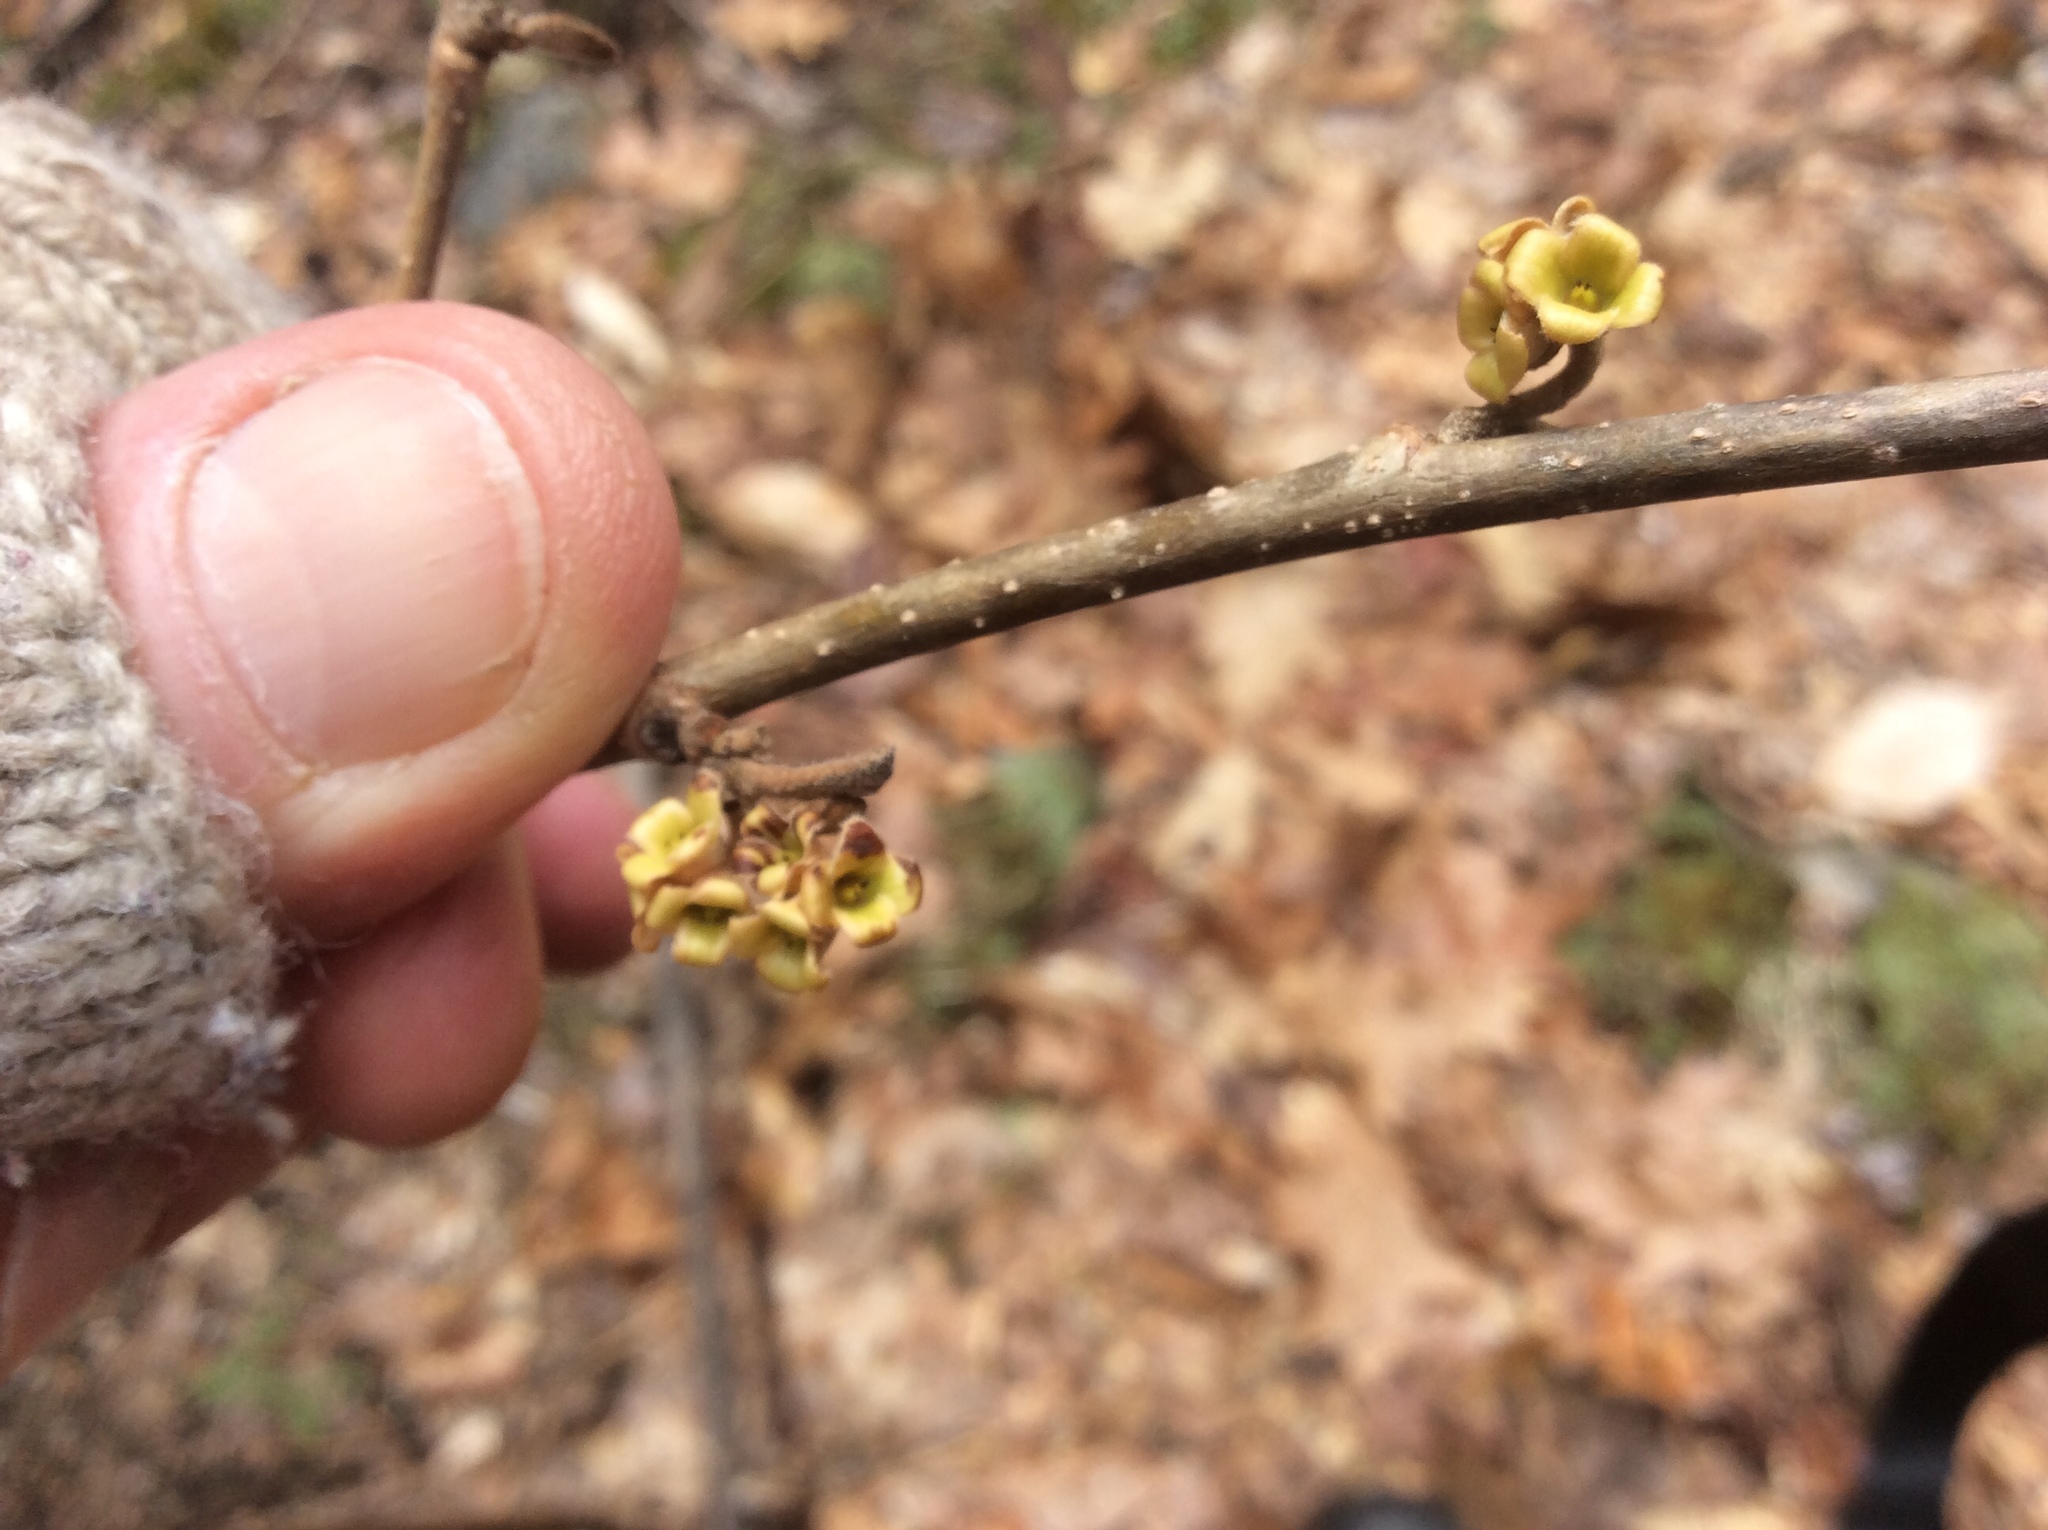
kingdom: Plantae
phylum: Tracheophyta
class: Magnoliopsida
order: Saxifragales
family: Hamamelidaceae
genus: Hamamelis
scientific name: Hamamelis virginiana
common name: Witch-hazel
